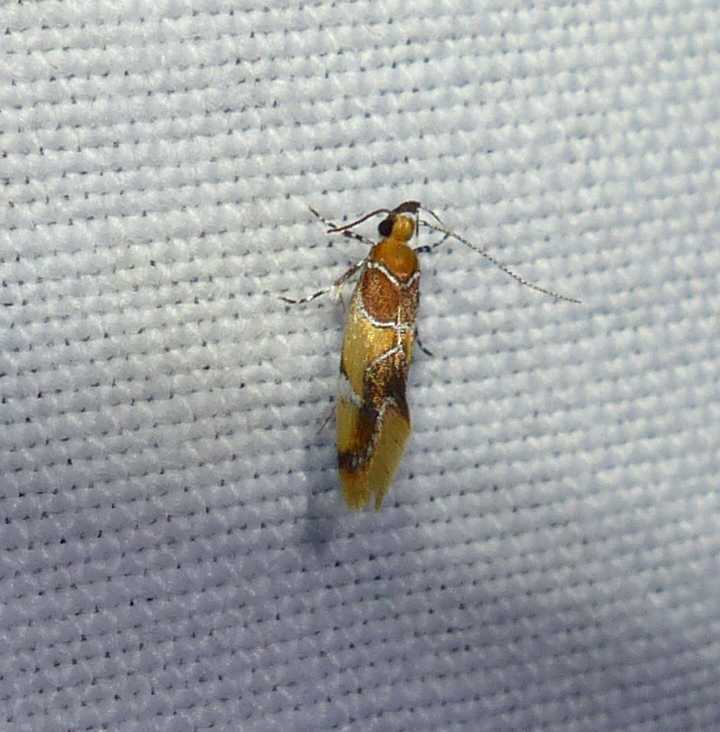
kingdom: Animalia
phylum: Arthropoda
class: Insecta
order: Lepidoptera
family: Oecophoridae
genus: Callima
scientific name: Callima argenticinctella
